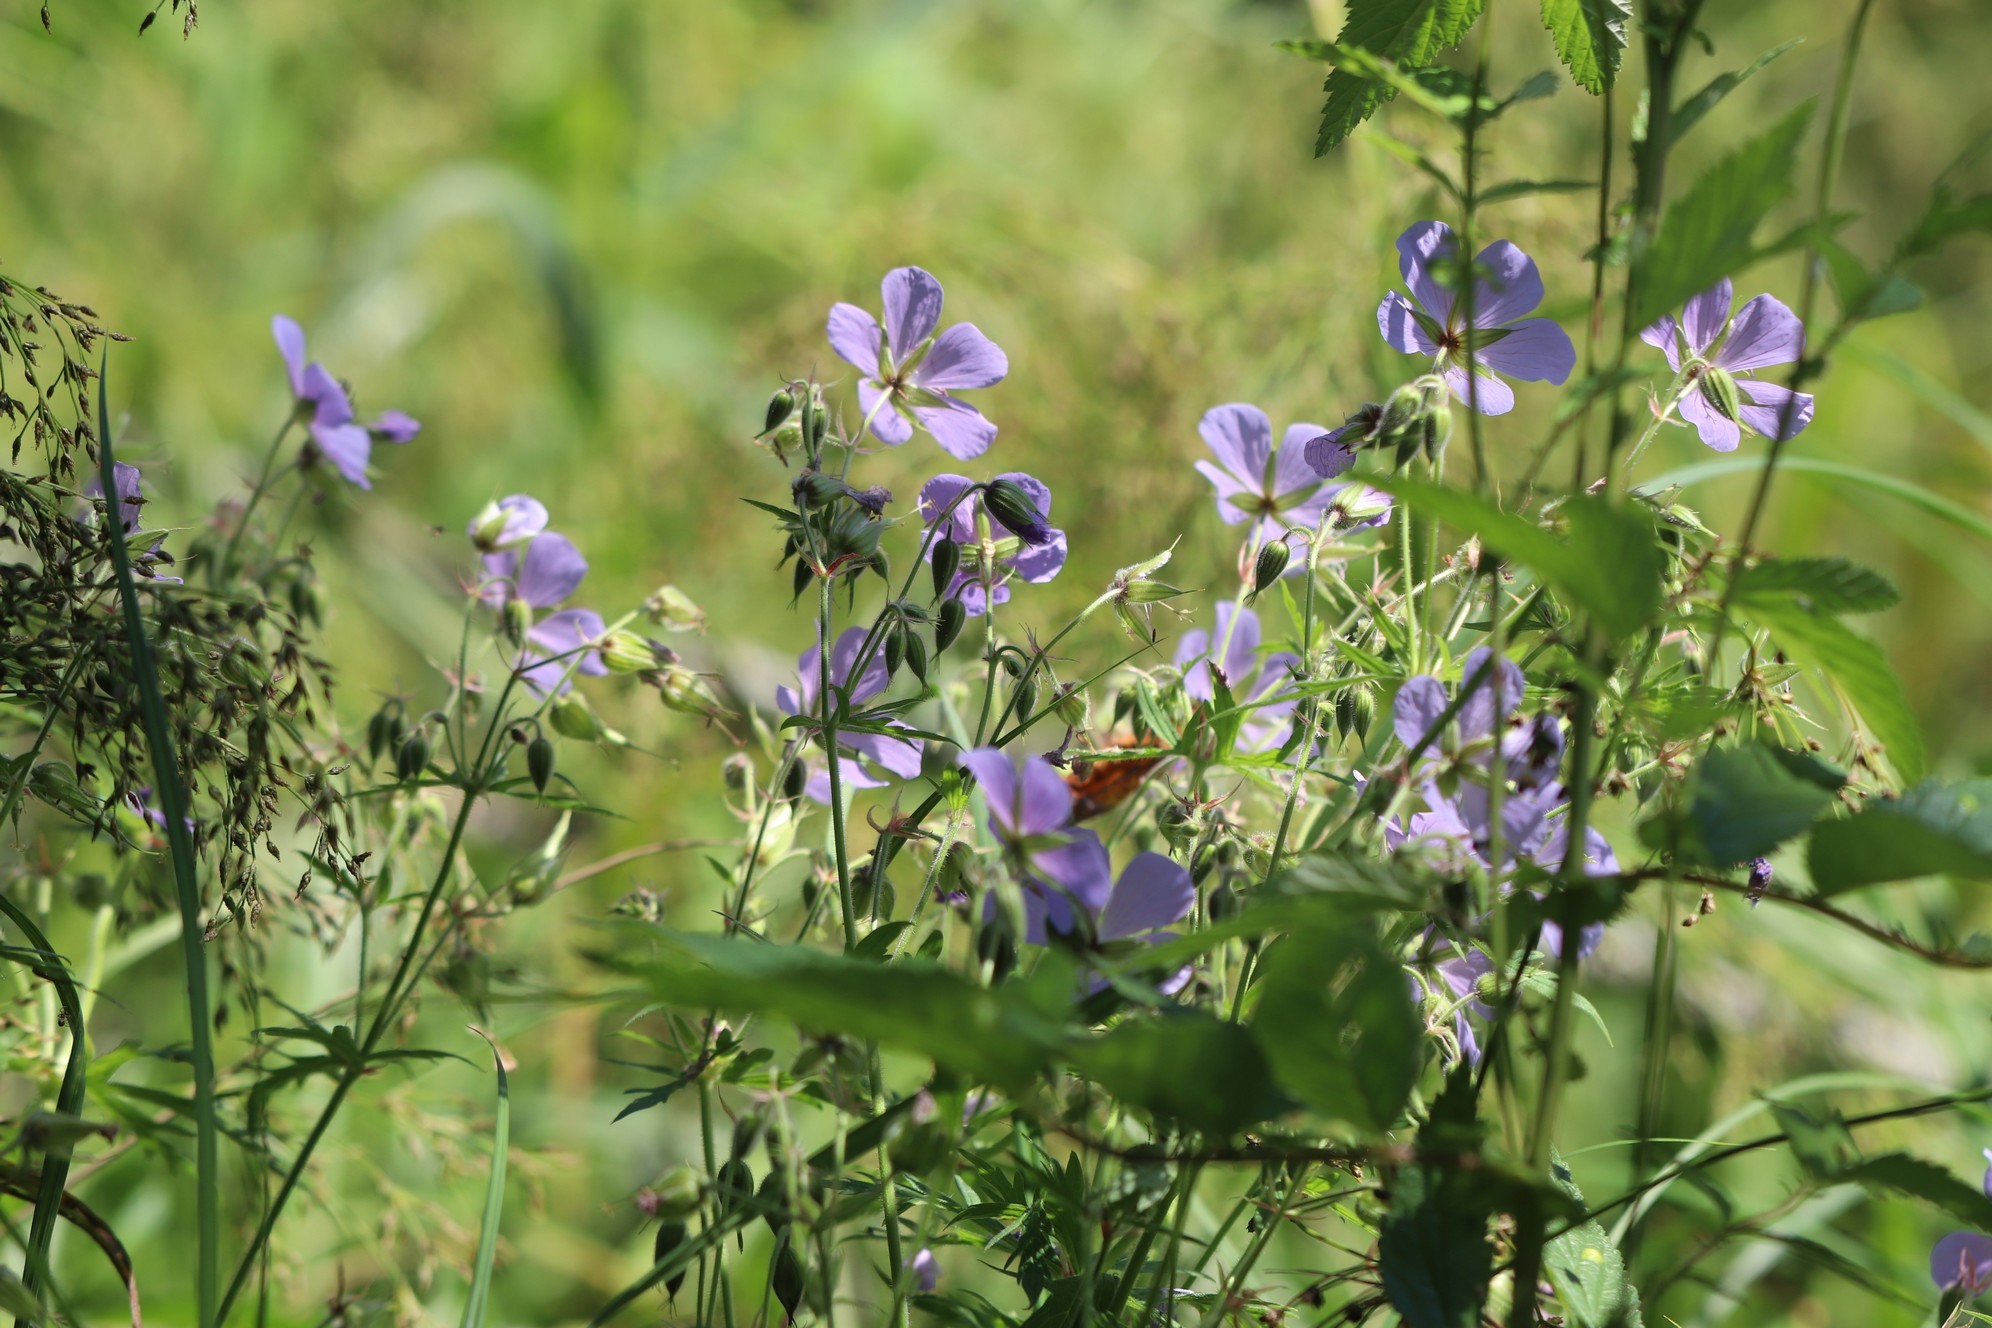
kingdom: Plantae
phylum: Tracheophyta
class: Magnoliopsida
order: Geraniales
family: Geraniaceae
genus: Geranium
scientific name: Geranium pratense
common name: Meadow crane's-bill
